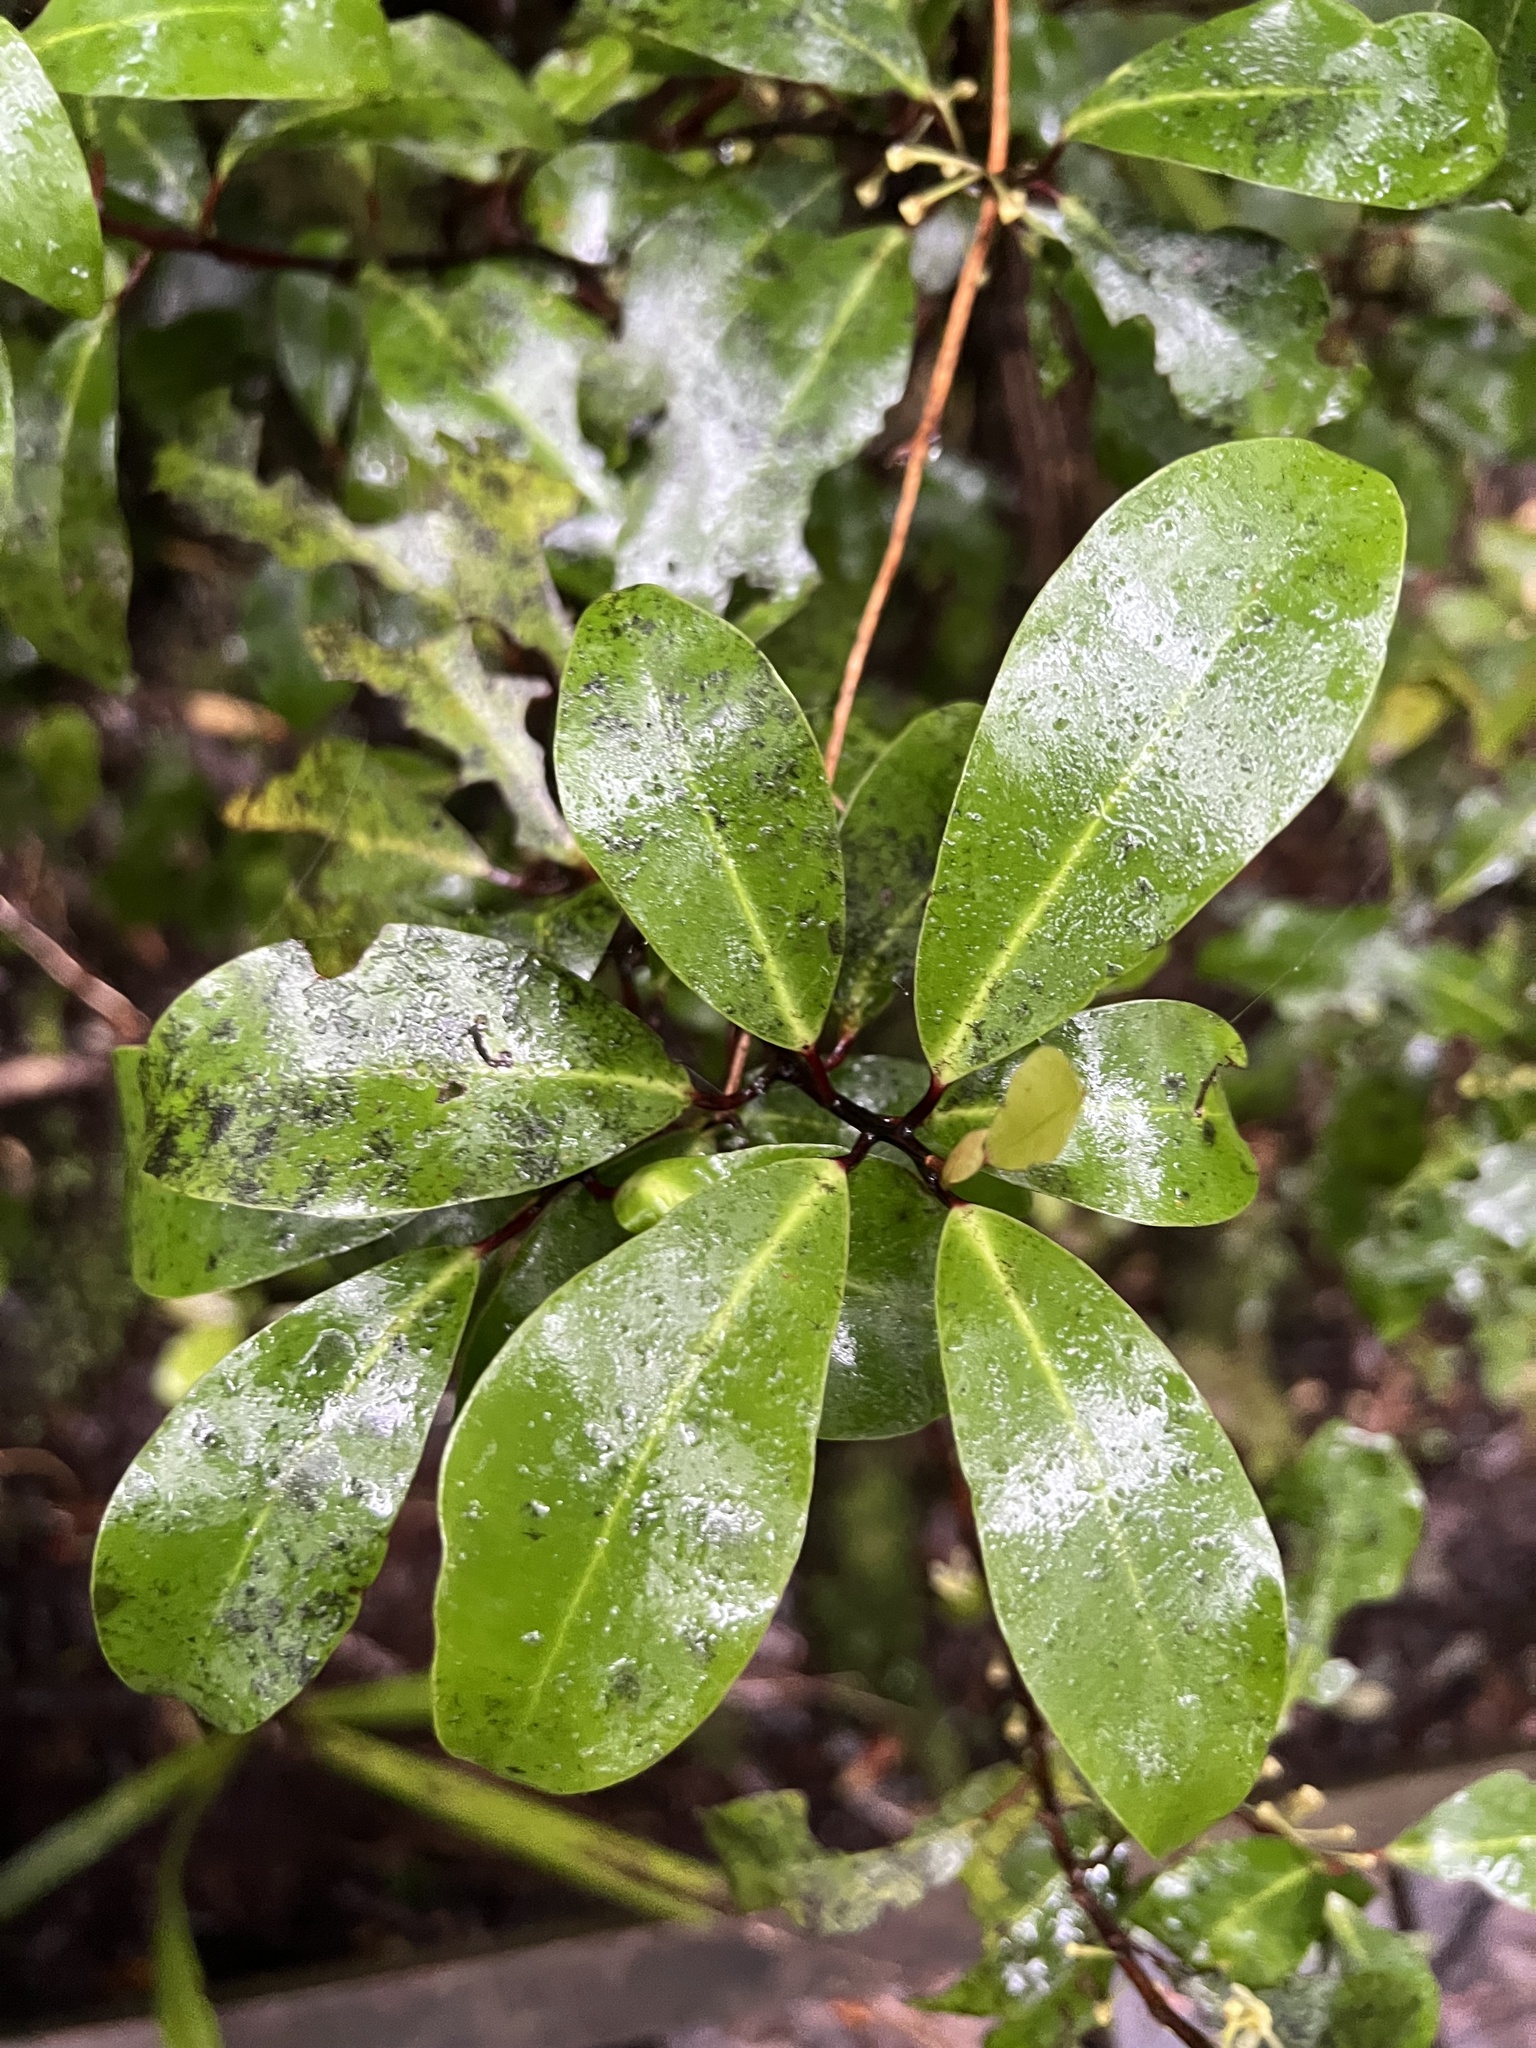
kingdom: Plantae
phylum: Tracheophyta
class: Magnoliopsida
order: Canellales
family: Winteraceae
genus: Pseudowintera
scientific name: Pseudowintera axillaris
